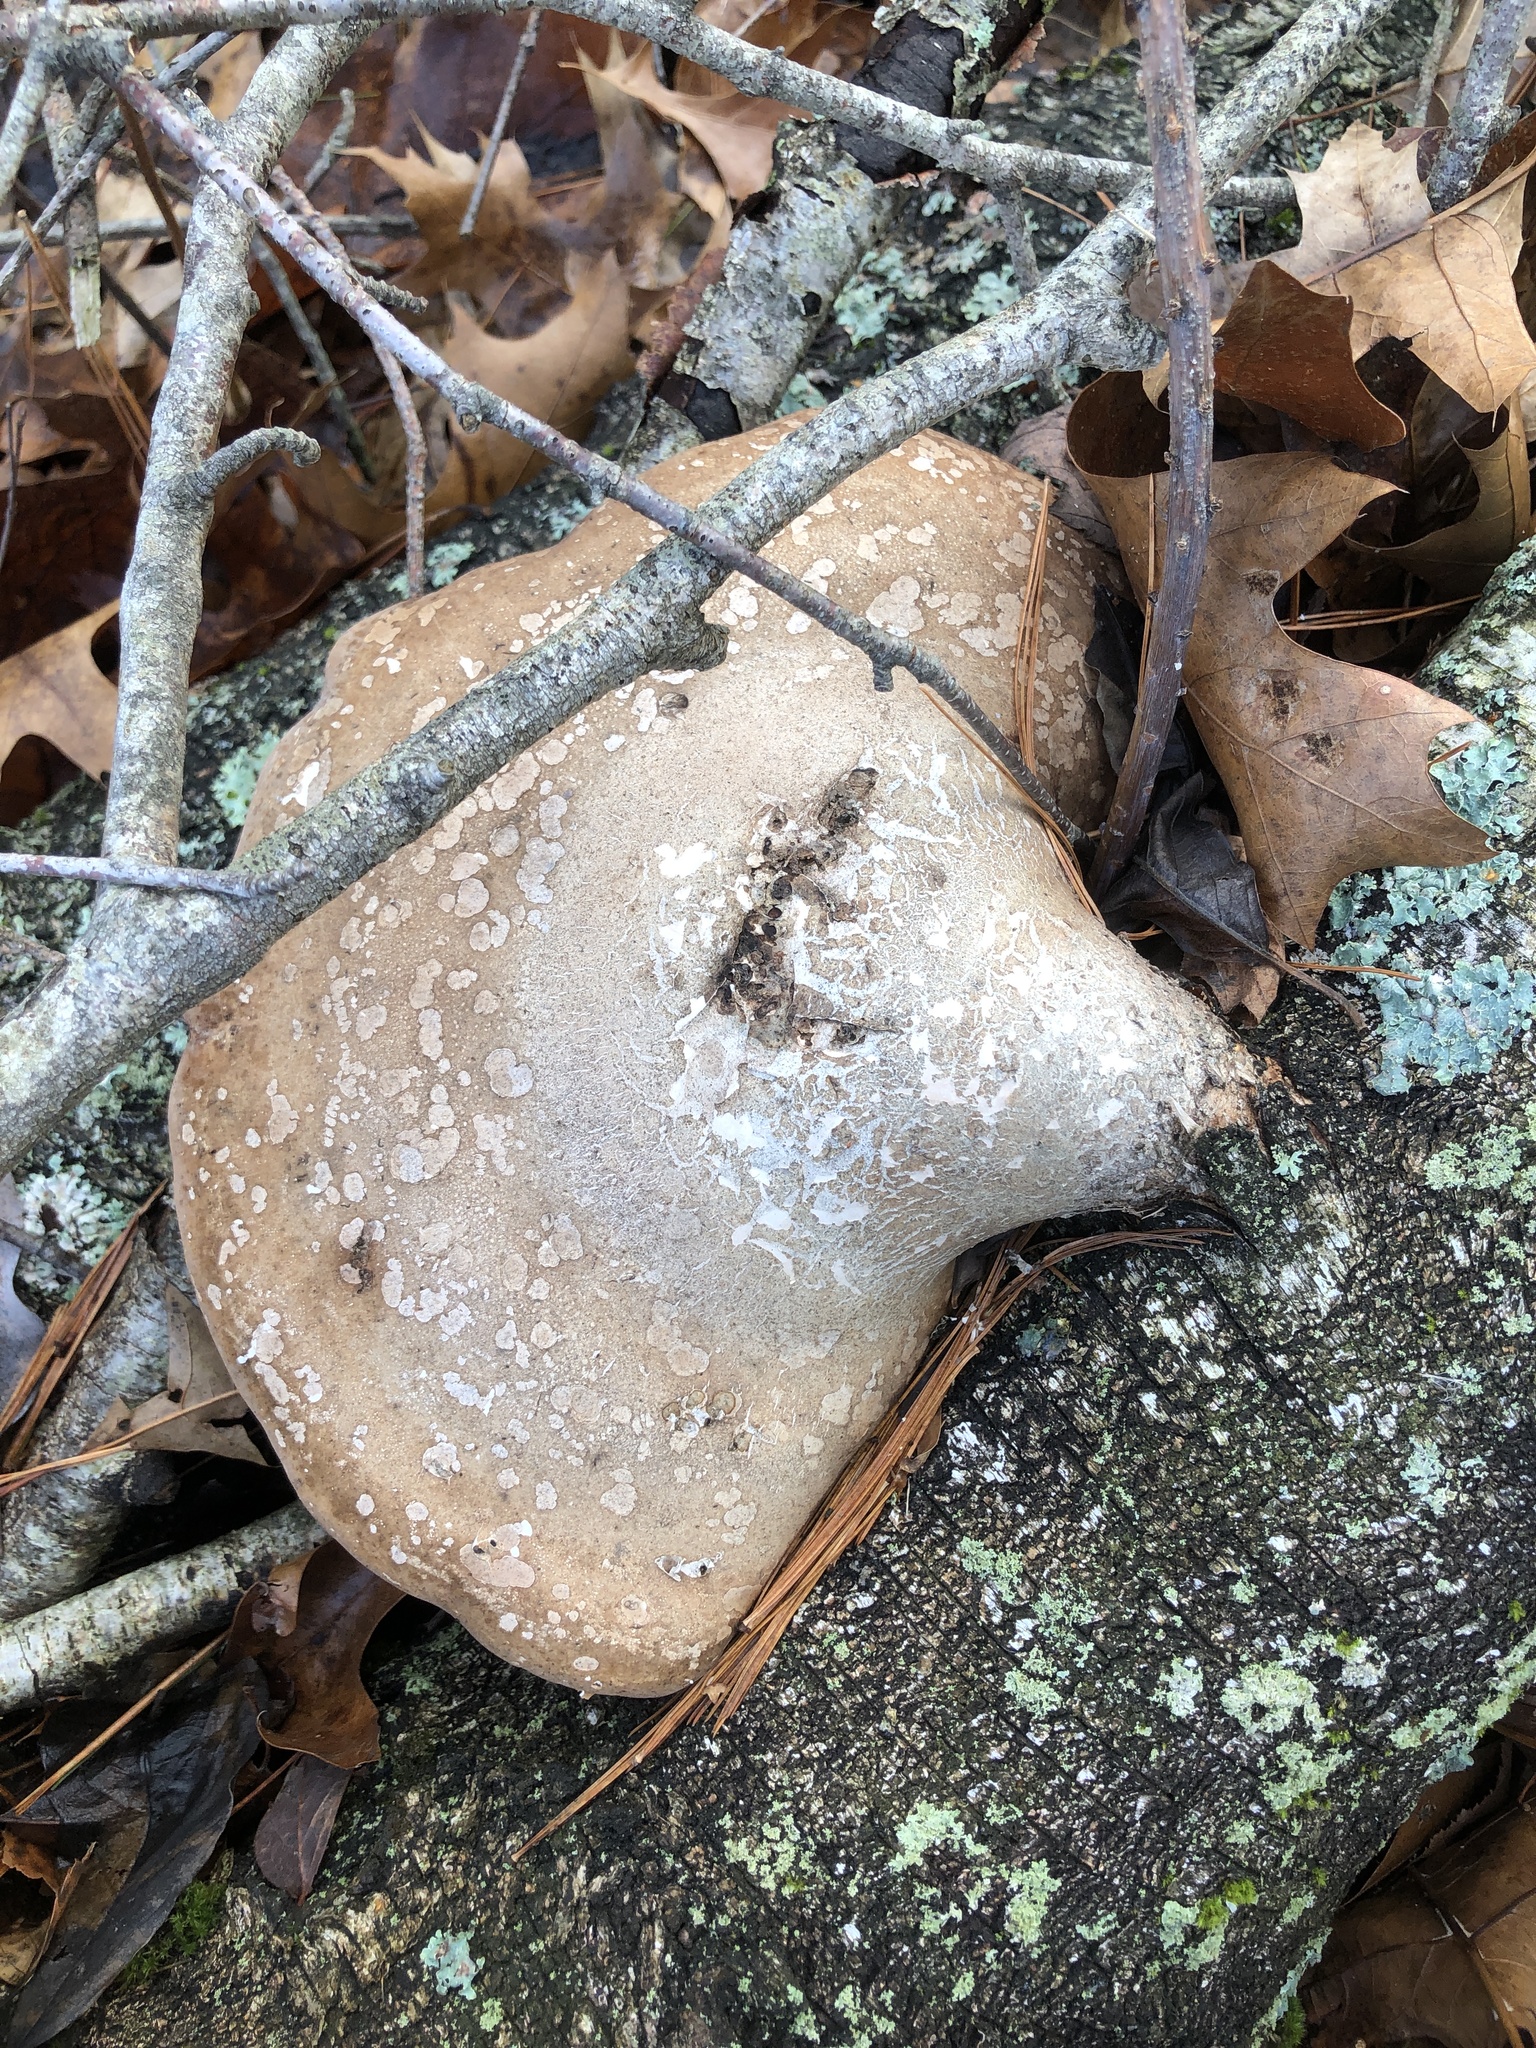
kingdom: Fungi
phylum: Basidiomycota
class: Agaricomycetes
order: Polyporales
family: Fomitopsidaceae
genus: Fomitopsis
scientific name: Fomitopsis betulina
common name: Birch polypore
